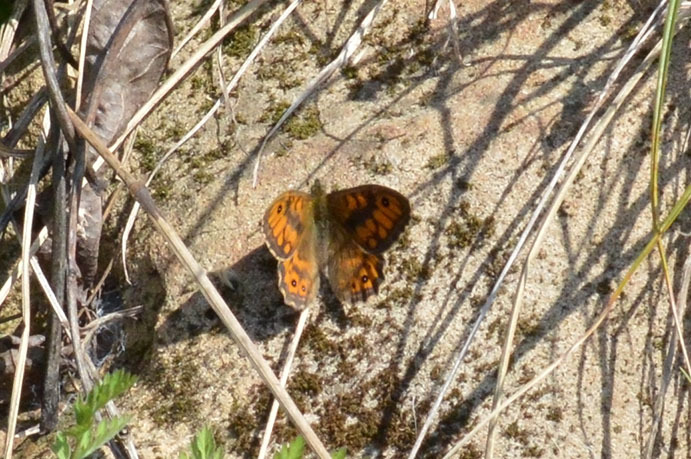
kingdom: Animalia
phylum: Arthropoda
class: Insecta
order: Lepidoptera
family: Nymphalidae
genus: Pararge
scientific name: Pararge Lasiommata megera
